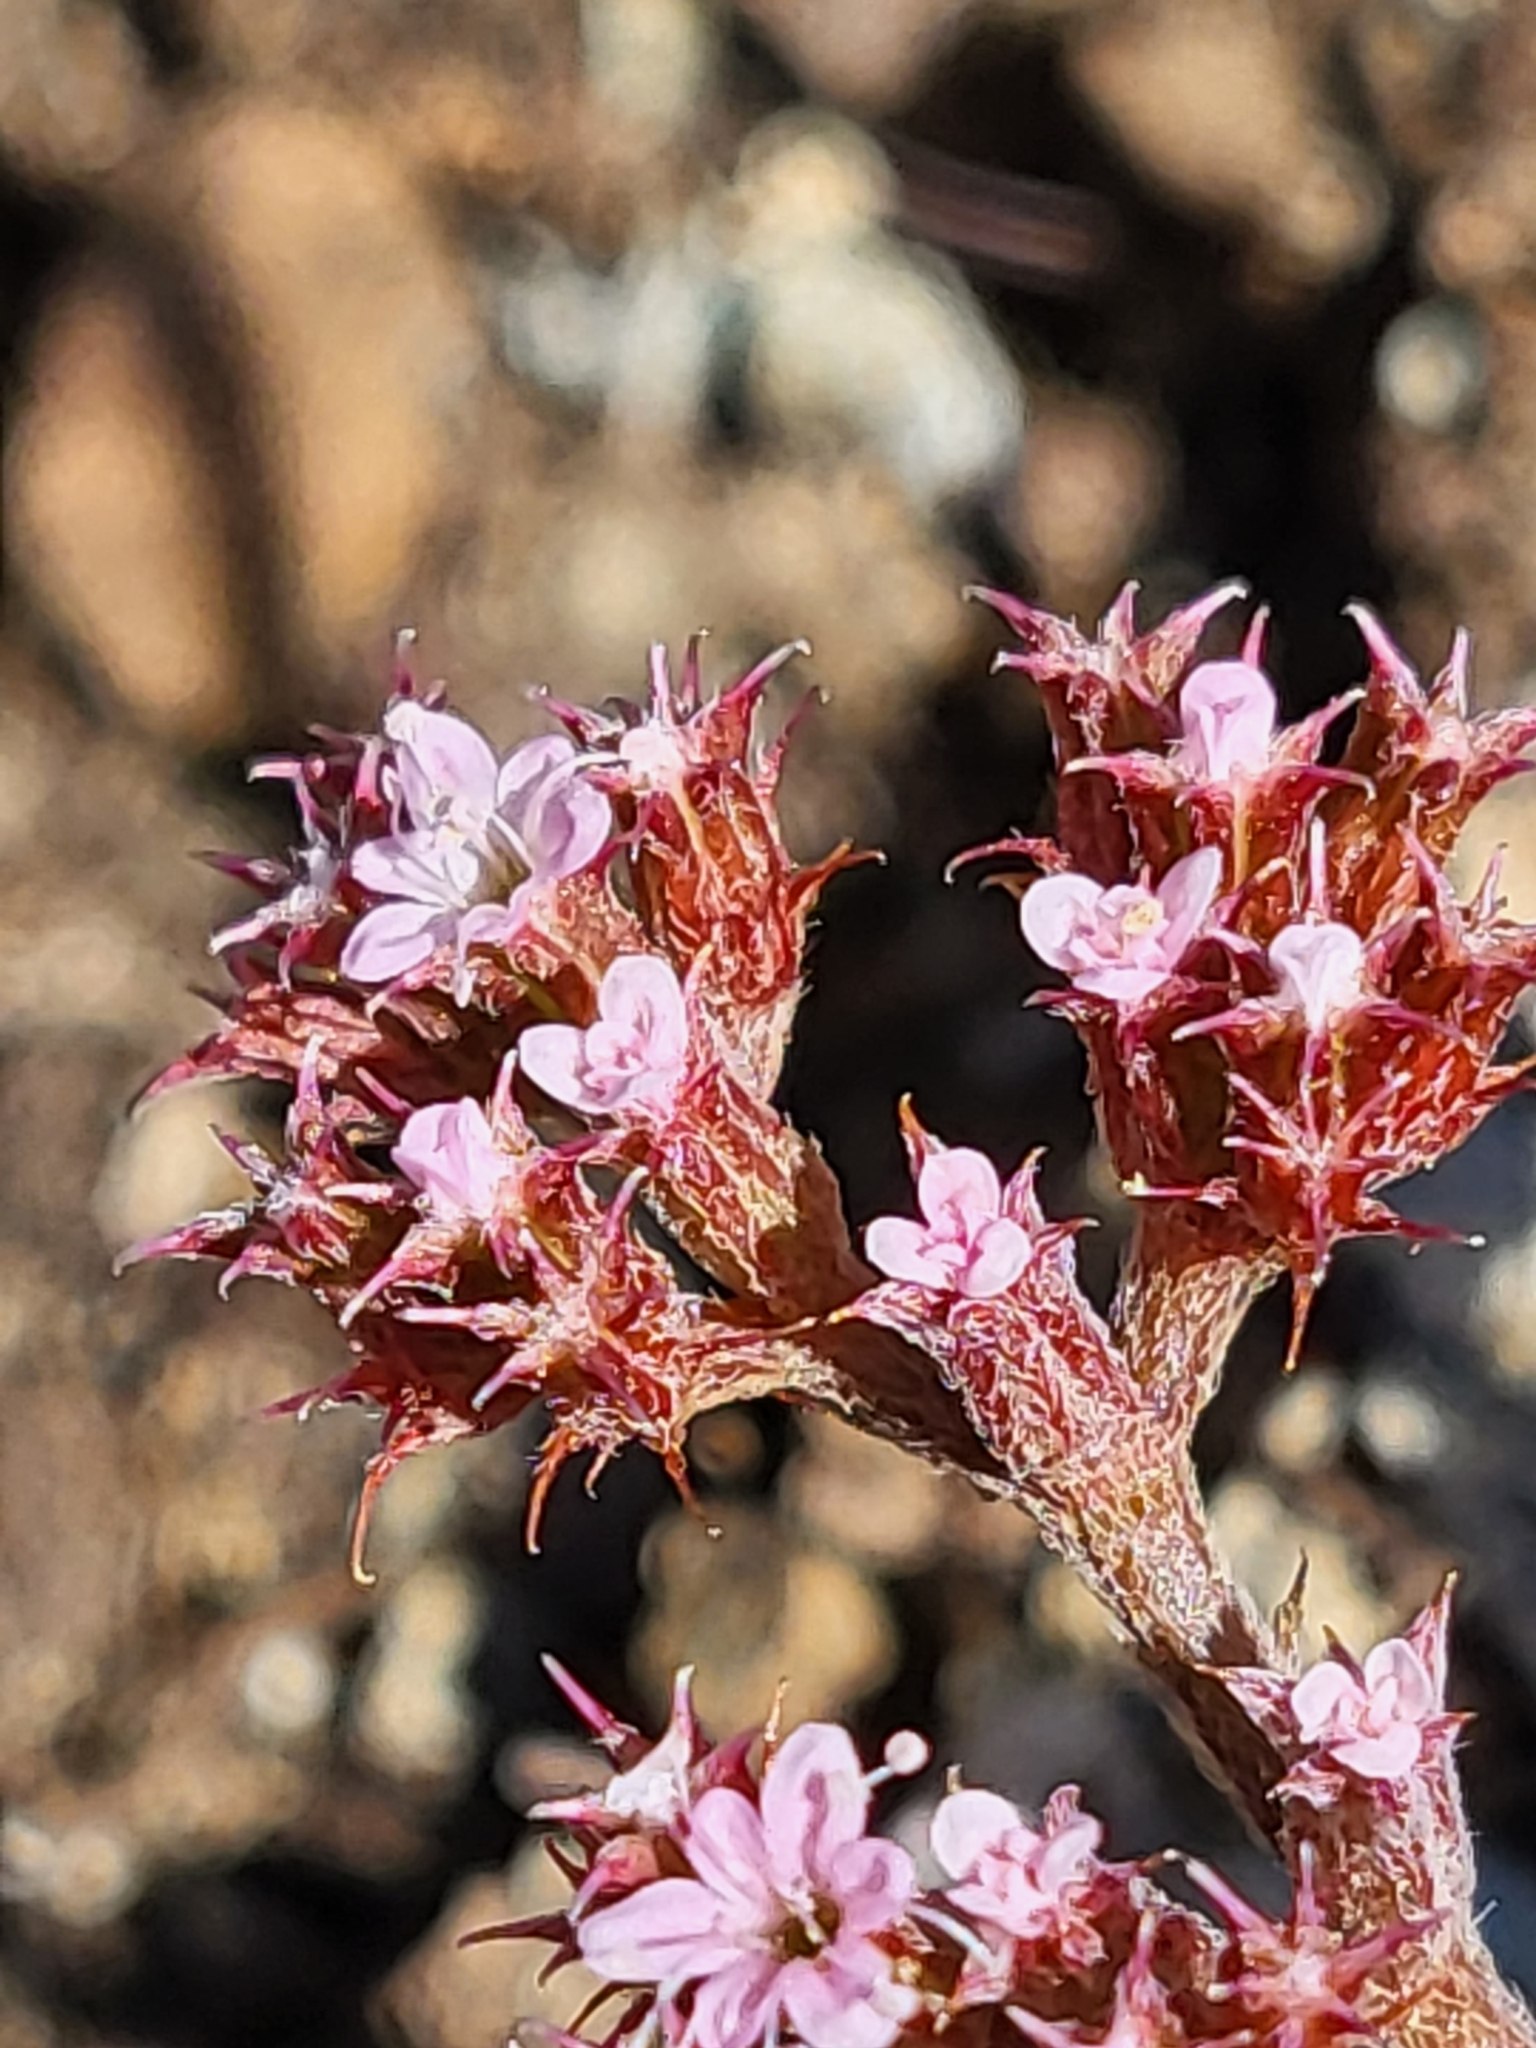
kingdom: Plantae
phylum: Tracheophyta
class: Magnoliopsida
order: Caryophyllales
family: Polygonaceae
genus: Chorizanthe
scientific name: Chorizanthe staticoides
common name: Turkish rugging
